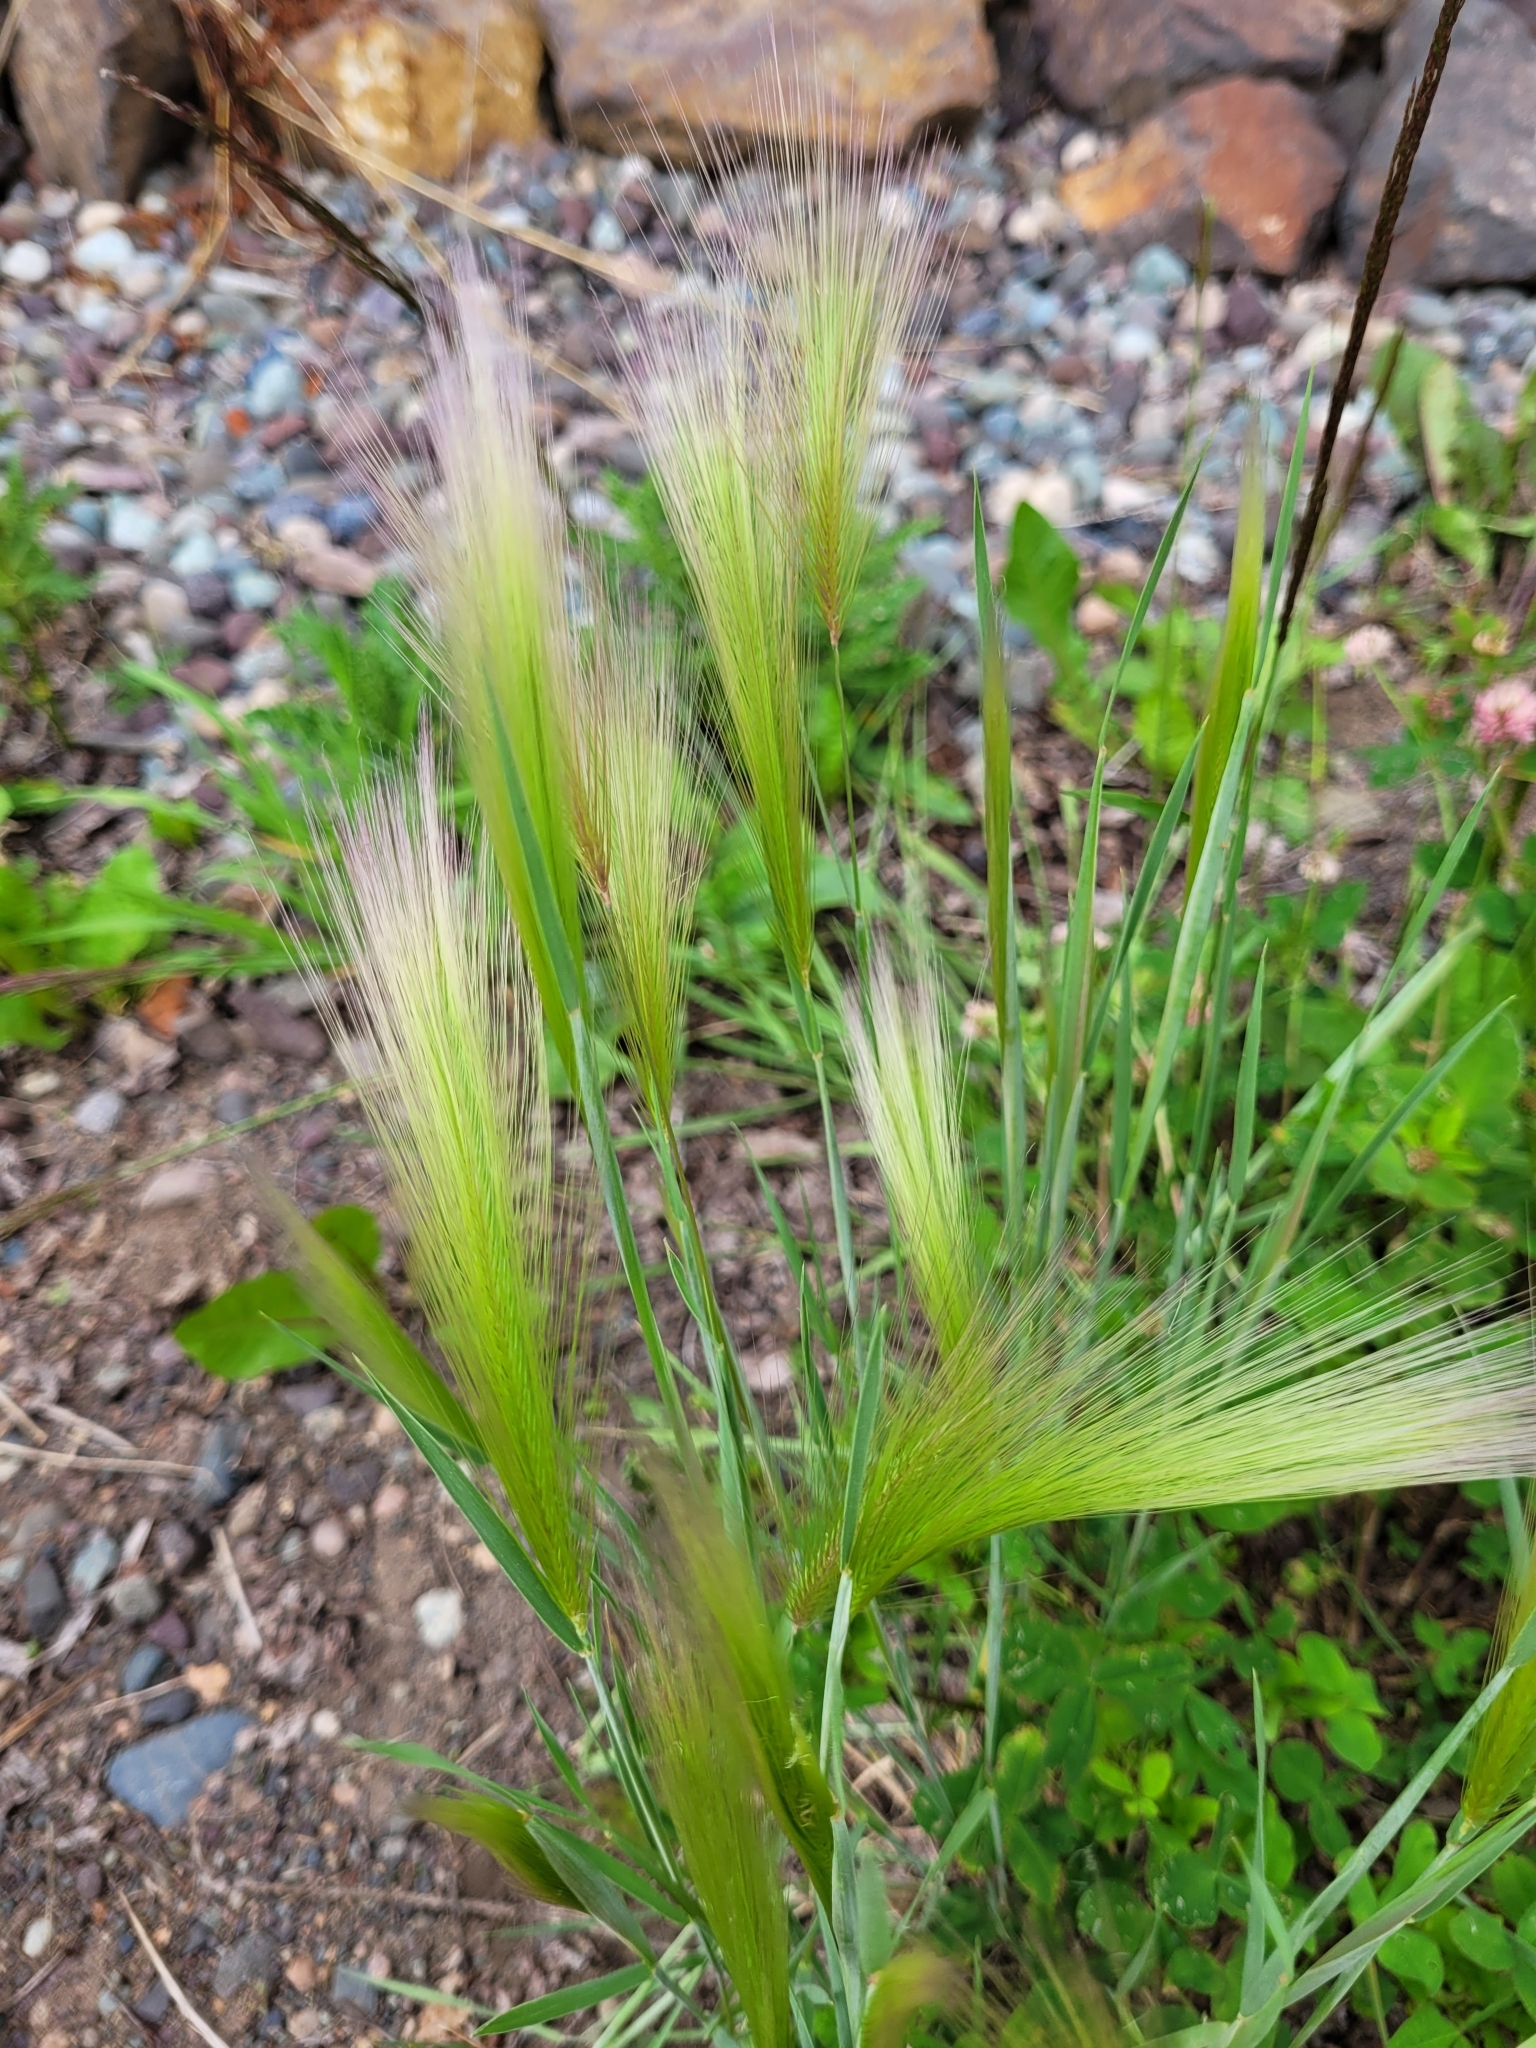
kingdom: Plantae
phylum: Tracheophyta
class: Liliopsida
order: Poales
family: Poaceae
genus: Hordeum
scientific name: Hordeum jubatum
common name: Foxtail barley
